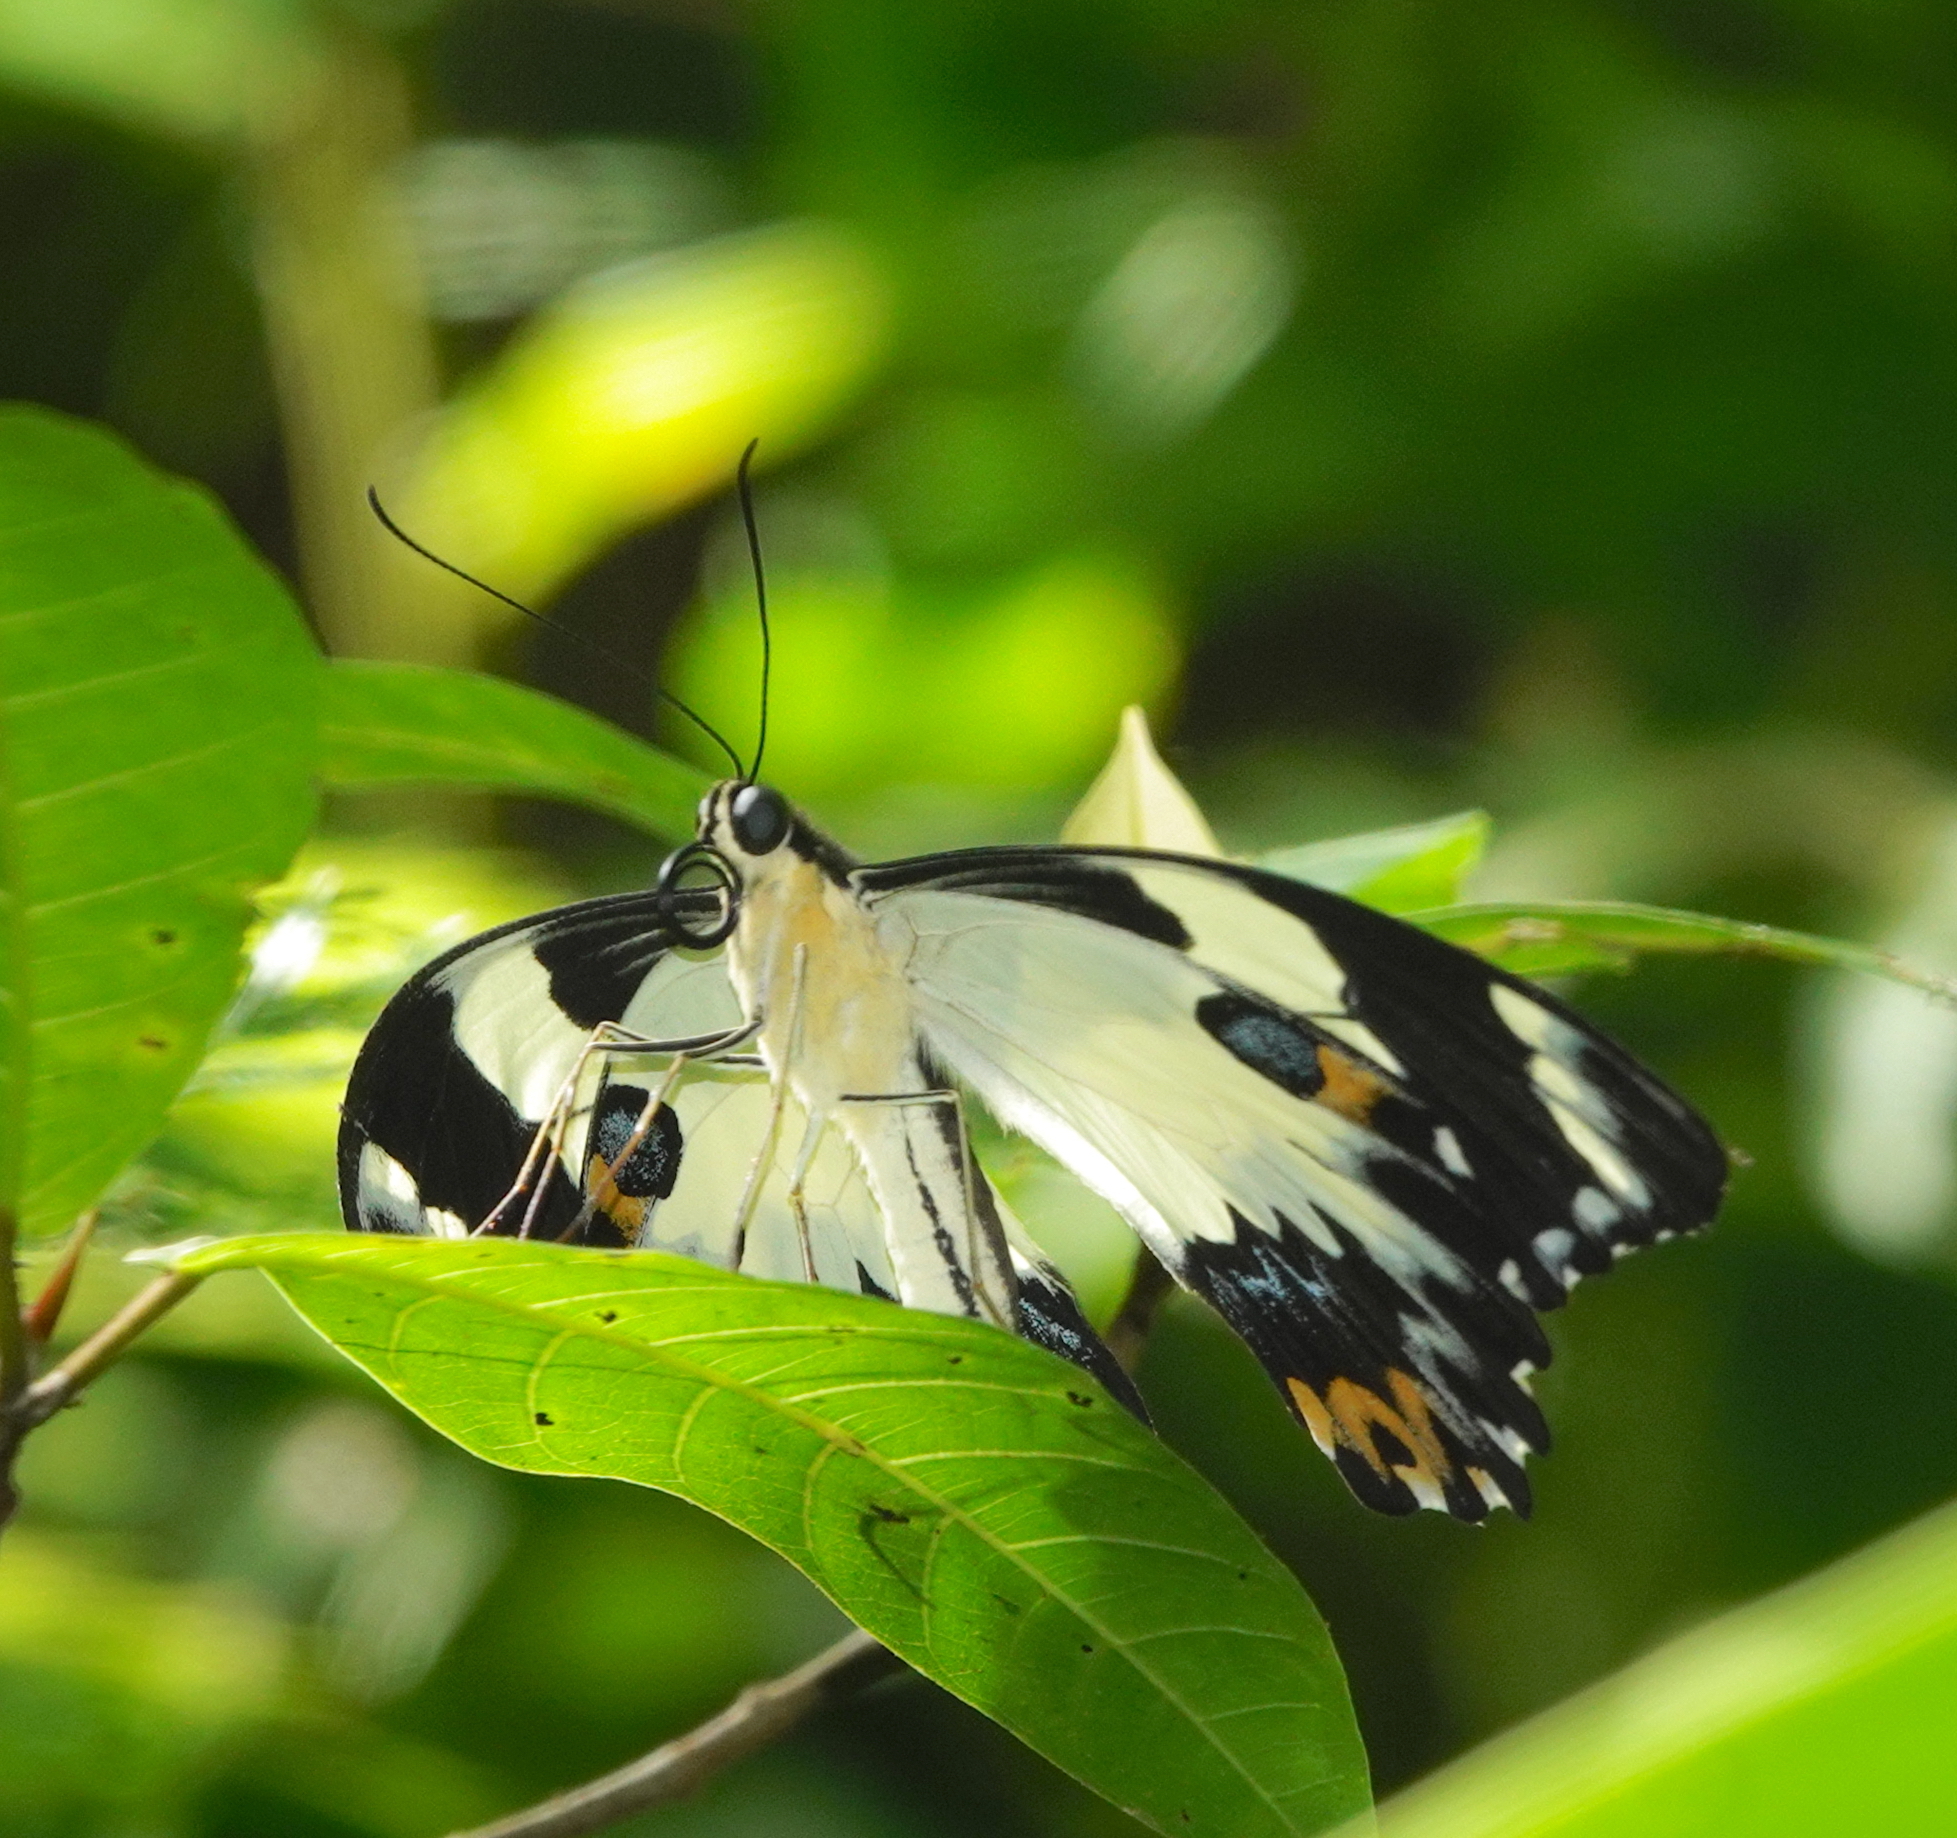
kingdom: Animalia
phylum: Arthropoda
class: Insecta
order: Lepidoptera
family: Papilionidae
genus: Papilio
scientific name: Papilio euchenor
